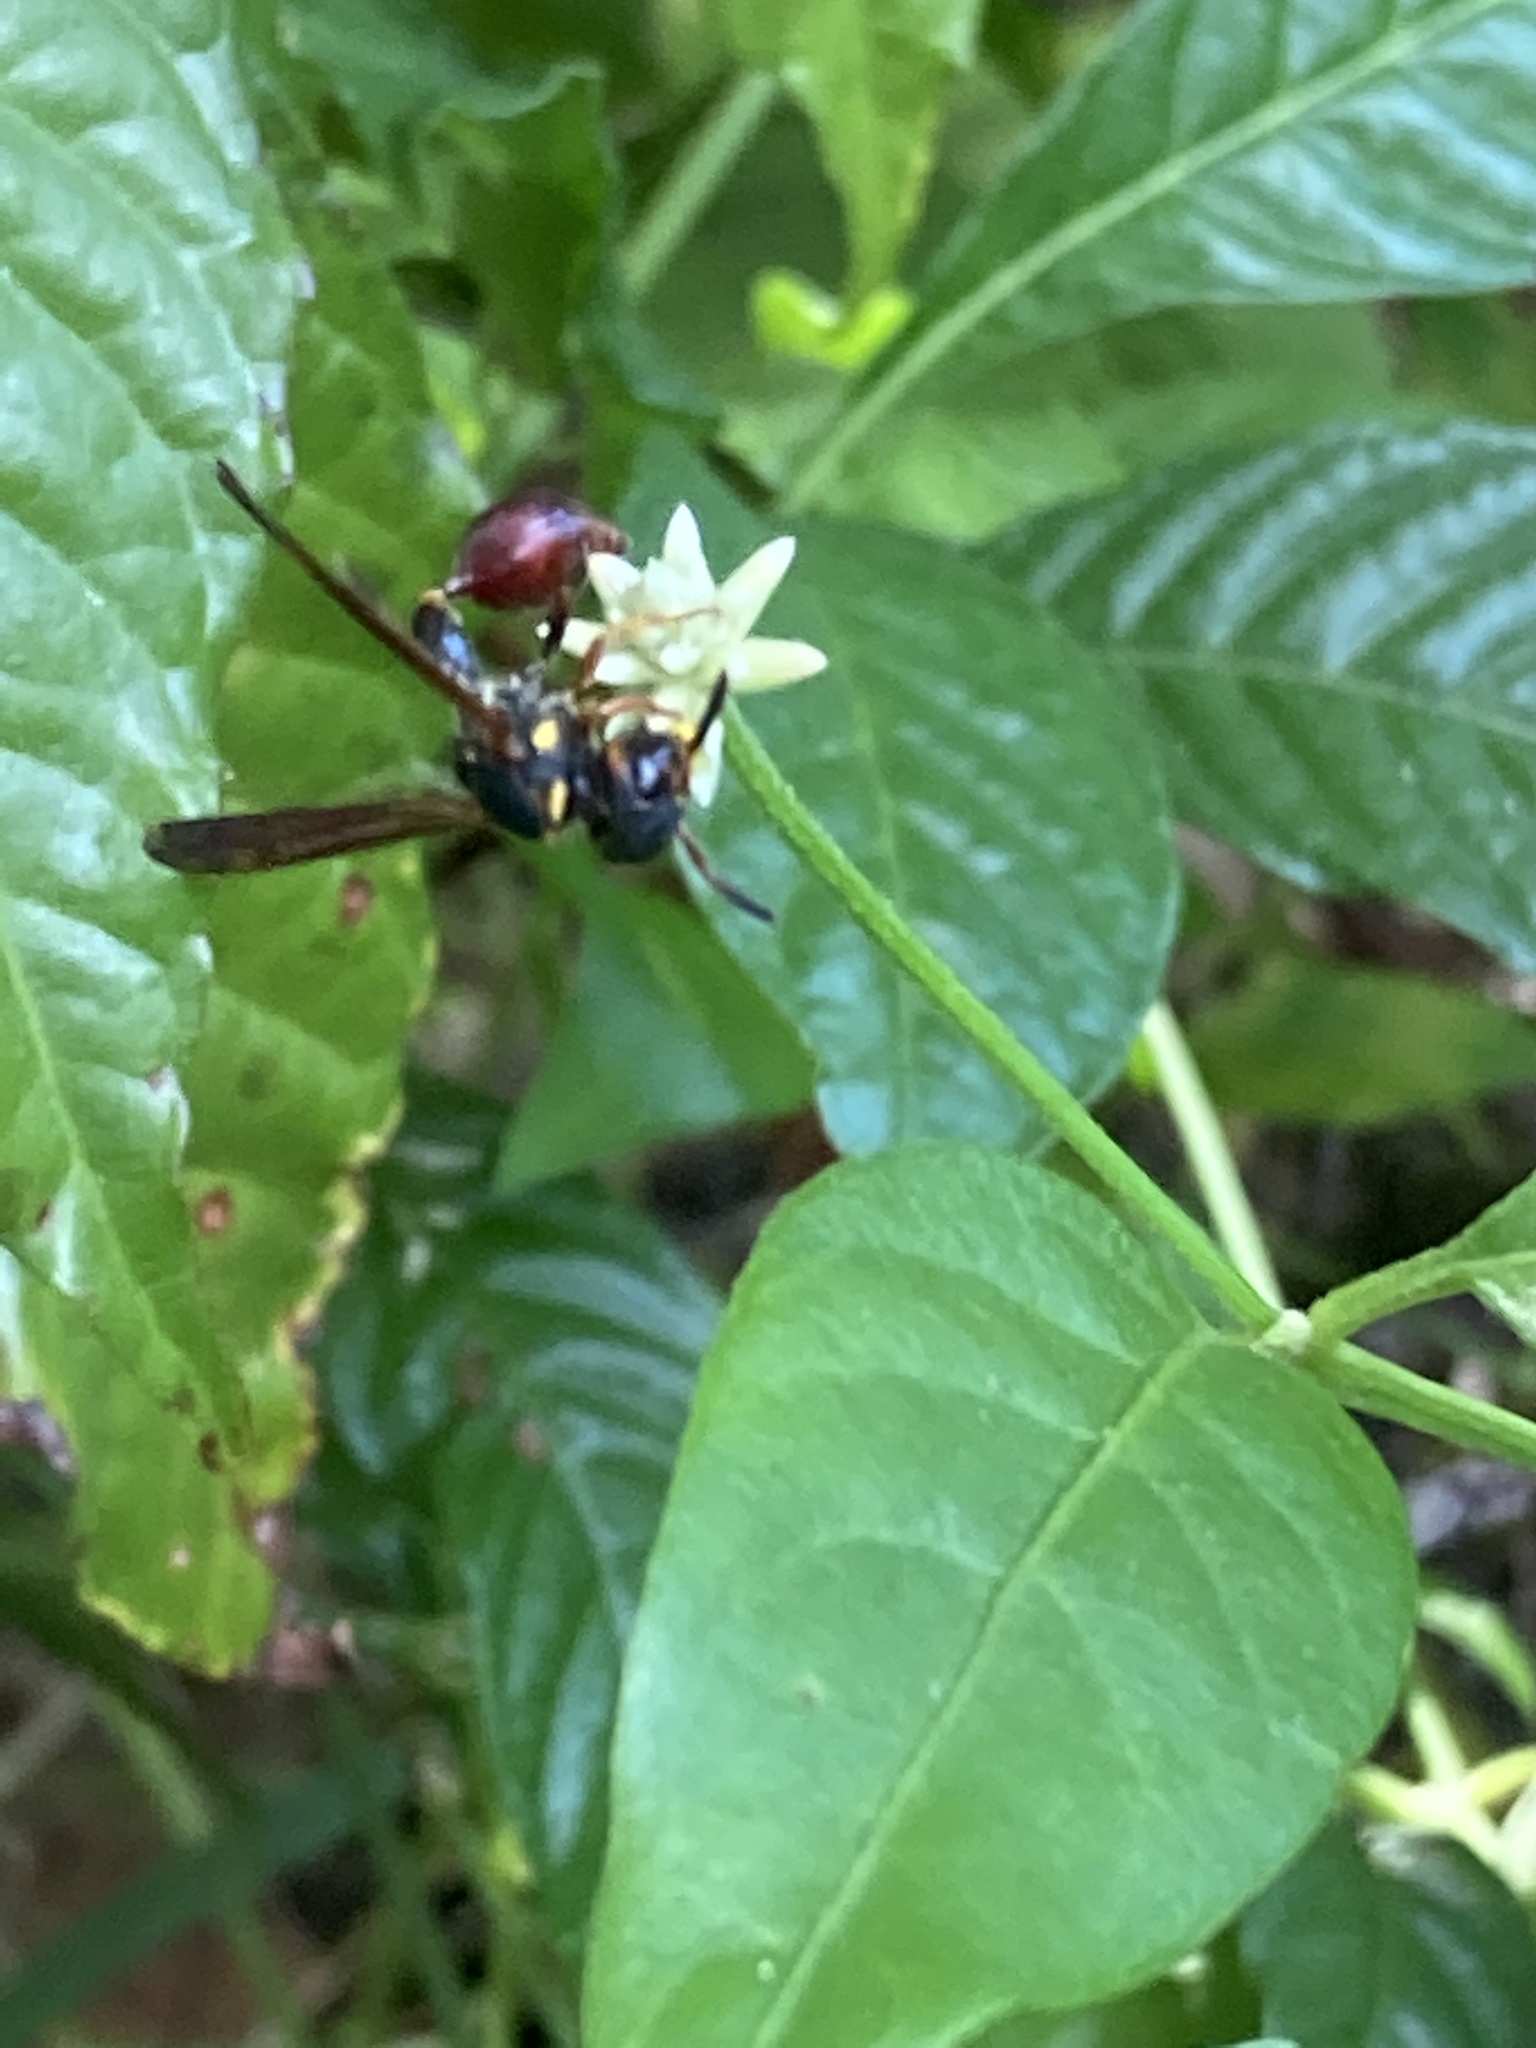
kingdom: Animalia
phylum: Arthropoda
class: Insecta
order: Hymenoptera
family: Eumenidae
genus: Zethus
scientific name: Zethus slossonae
